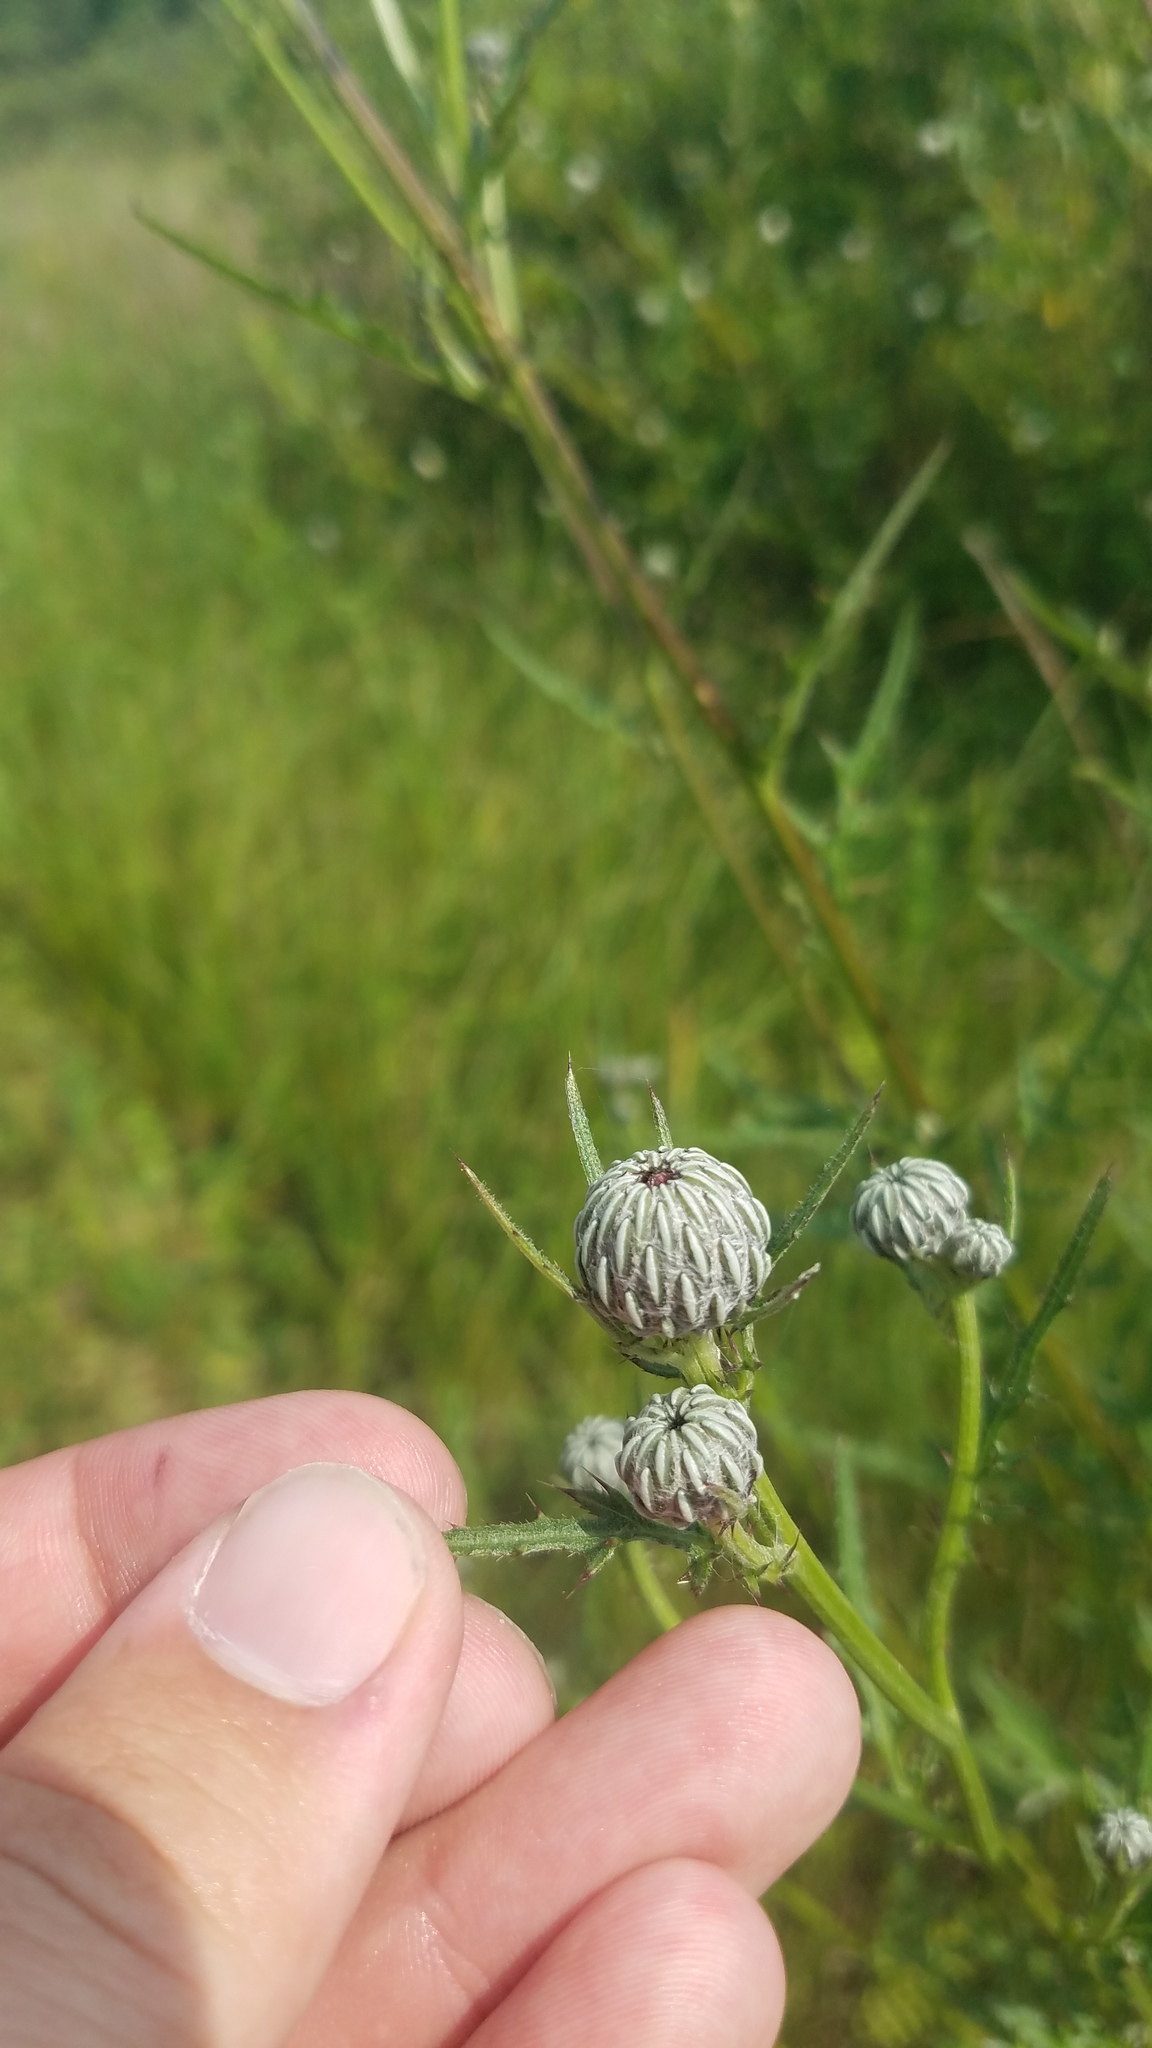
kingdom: Plantae
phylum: Tracheophyta
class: Magnoliopsida
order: Asterales
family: Asteraceae
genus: Cirsium
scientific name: Cirsium muticum
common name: Dunce-nettle
